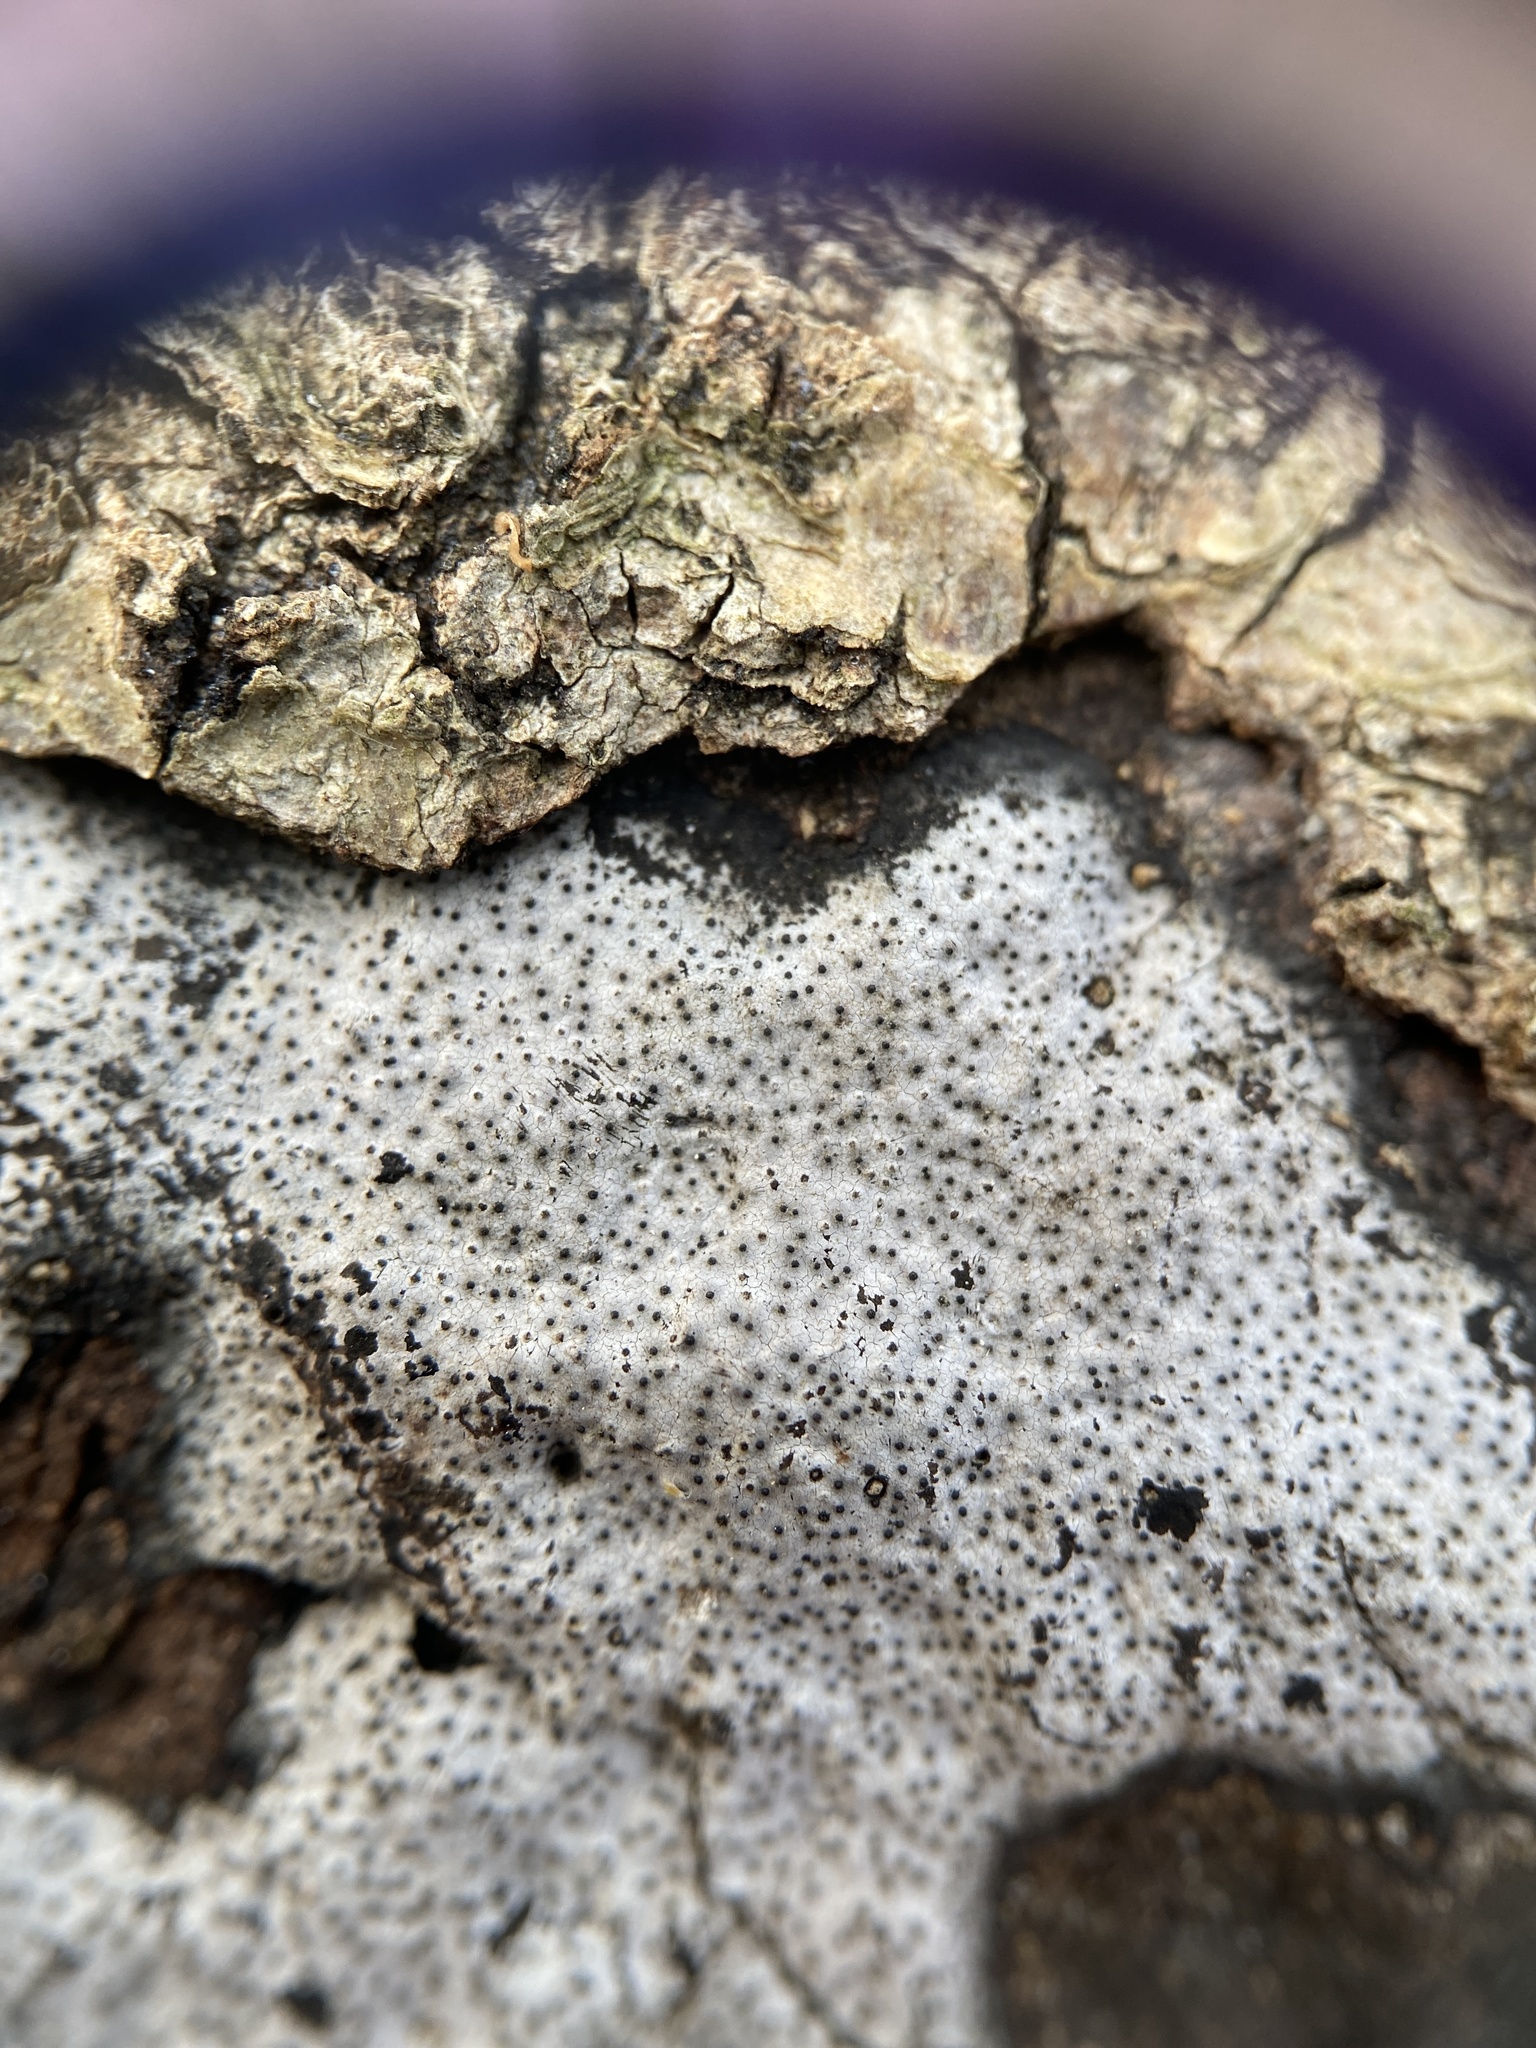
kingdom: Fungi
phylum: Ascomycota
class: Sordariomycetes
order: Xylariales
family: Graphostromataceae
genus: Biscogniauxia
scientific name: Biscogniauxia atropunctata
